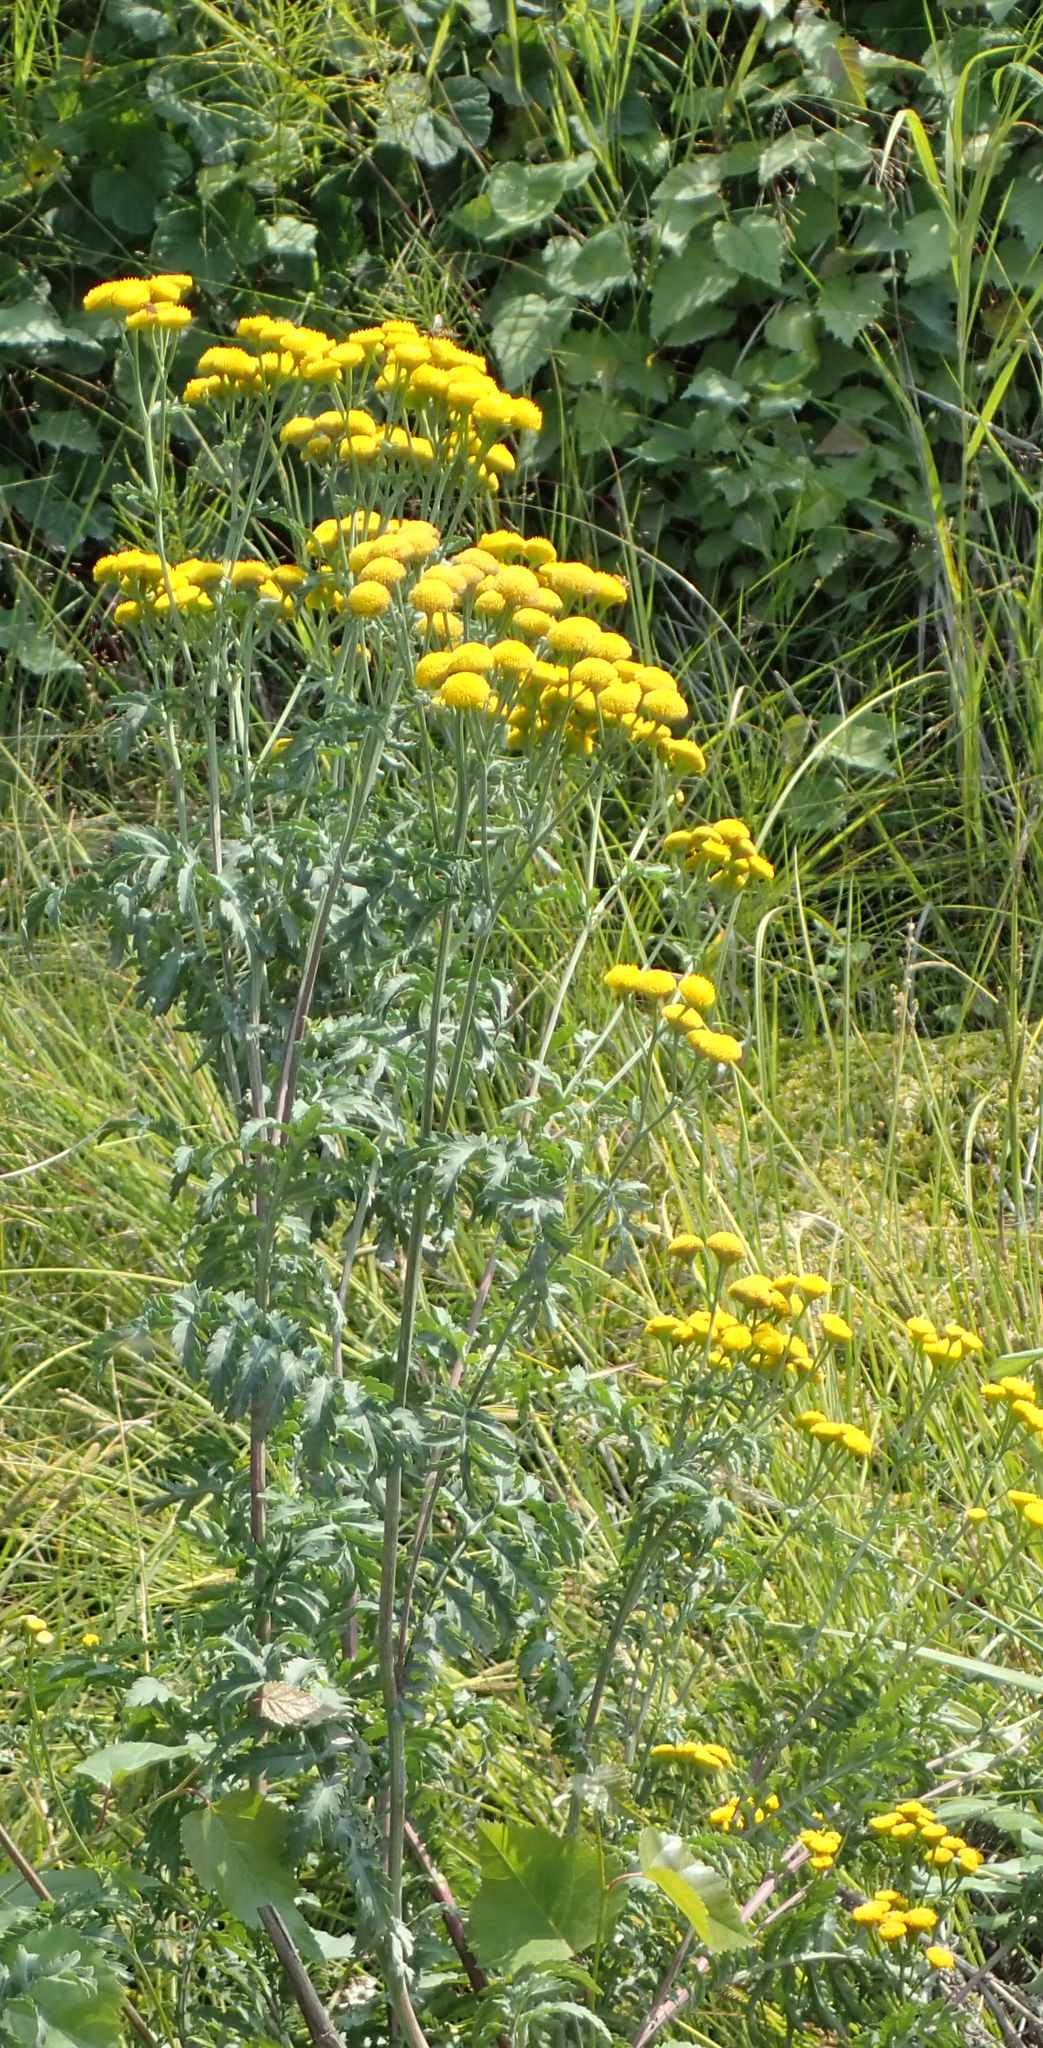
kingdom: Plantae
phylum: Tracheophyta
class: Magnoliopsida
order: Asterales
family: Asteraceae
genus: Tanacetum
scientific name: Tanacetum vulgare
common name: Common tansy
